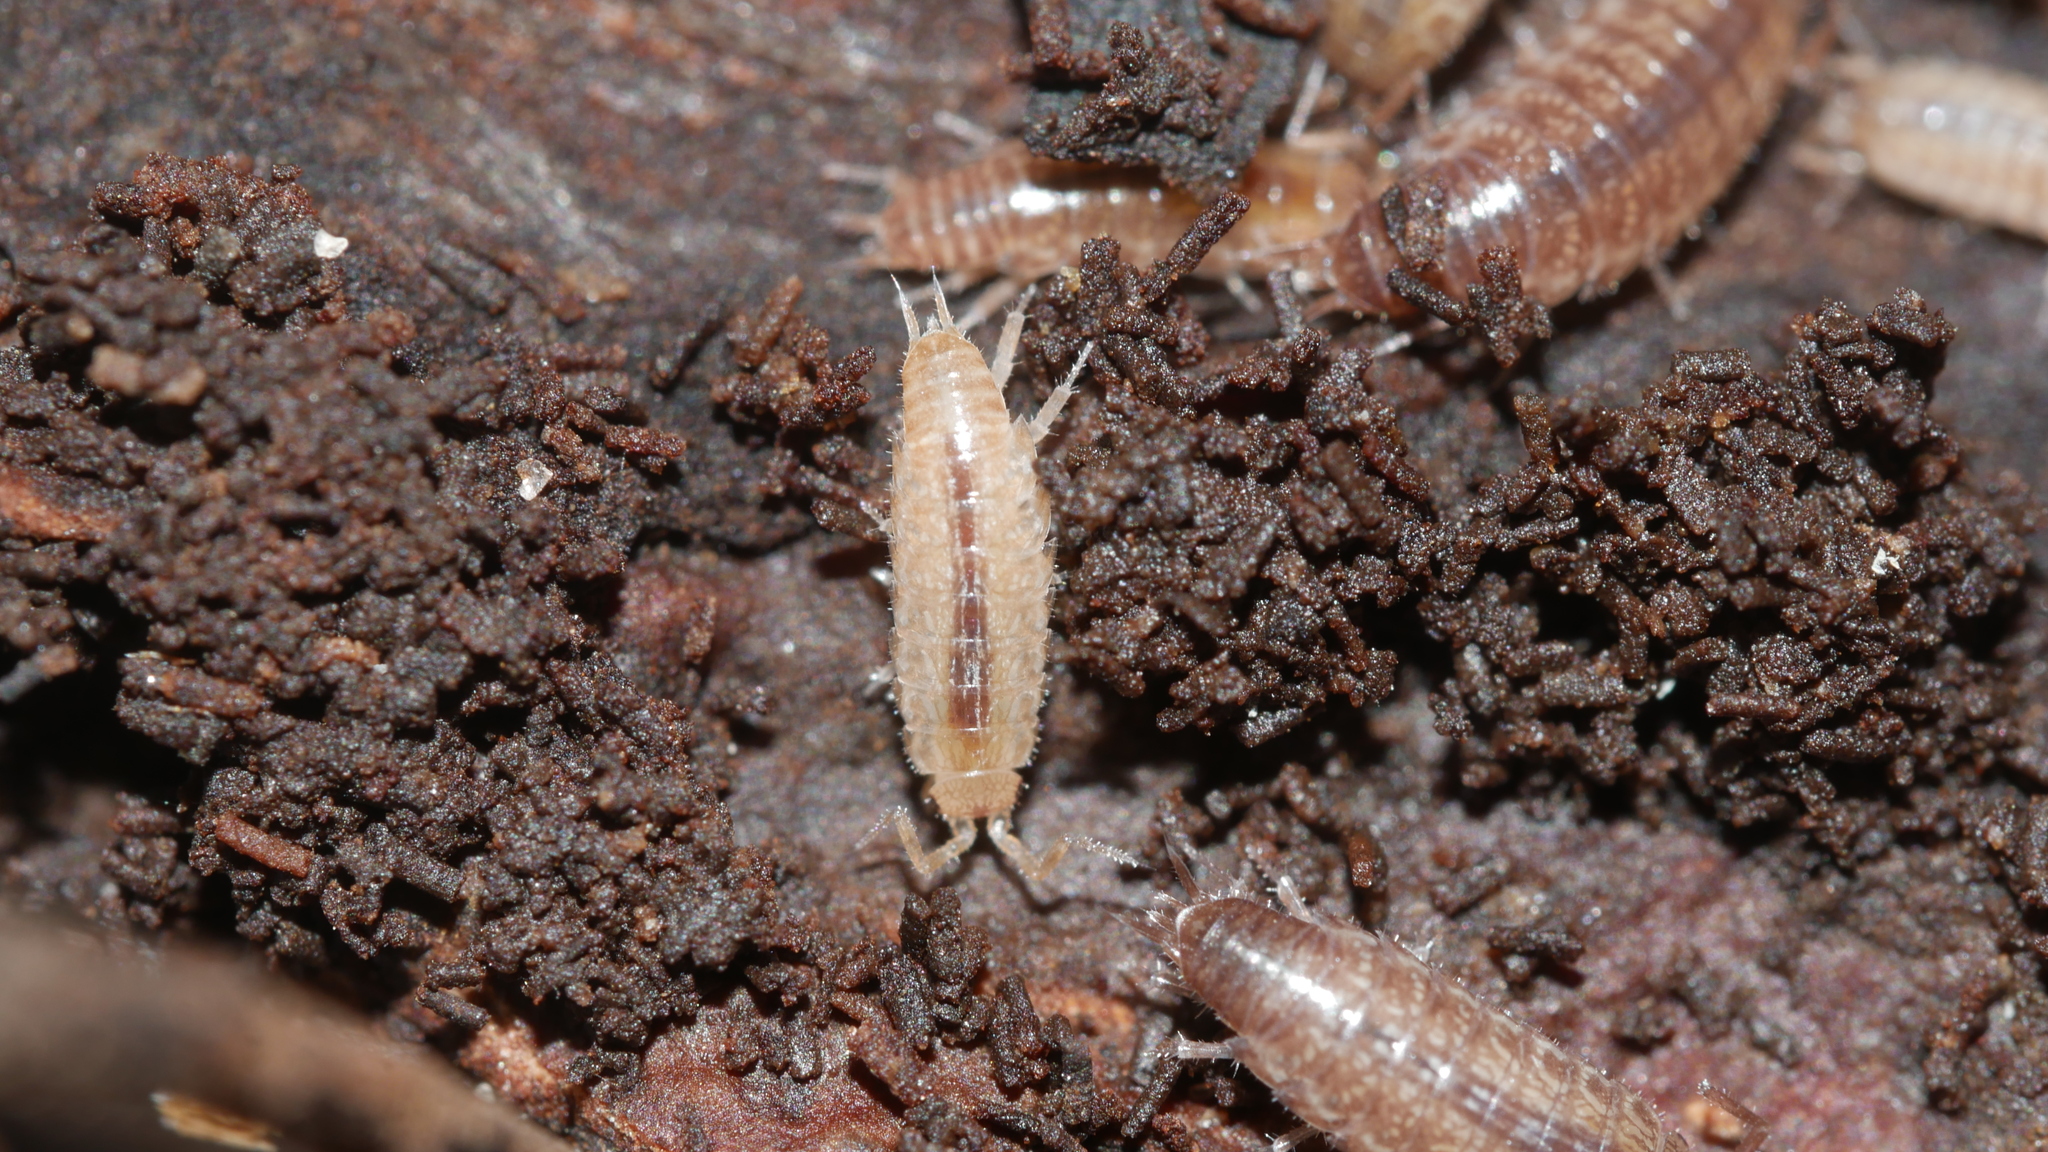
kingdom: Animalia
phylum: Arthropoda
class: Malacostraca
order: Isopoda
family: Philosciidae
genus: Chaetophiloscia
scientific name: Chaetophiloscia sicula
